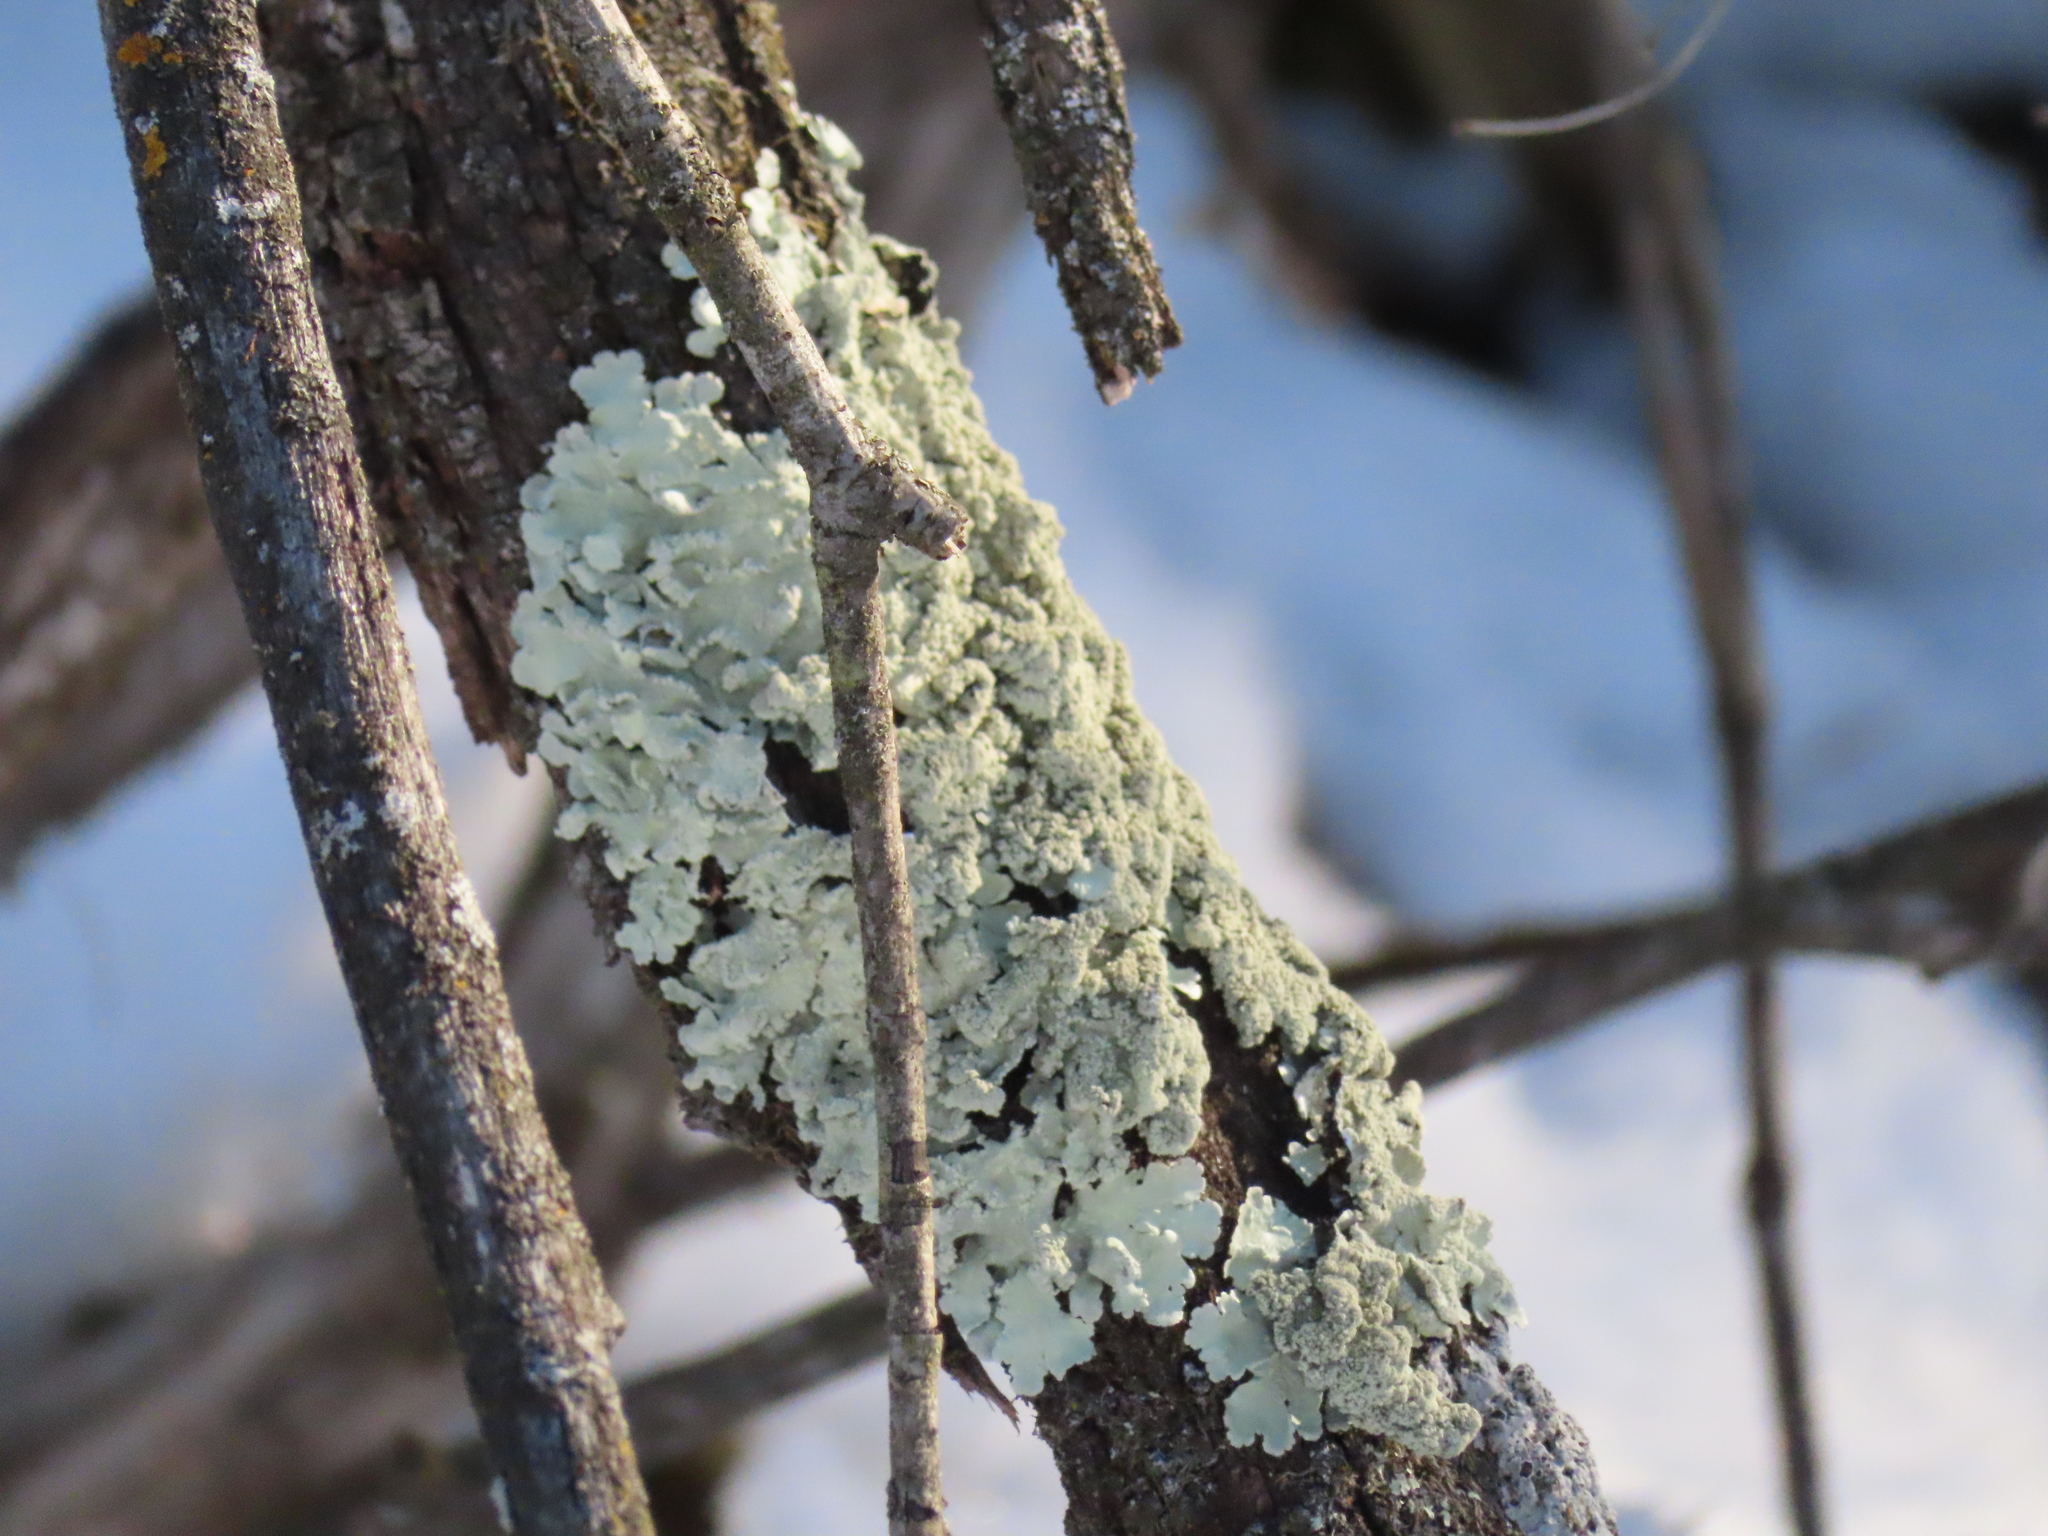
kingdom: Fungi
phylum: Ascomycota
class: Lecanoromycetes
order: Lecanorales
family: Parmeliaceae
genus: Flavoparmelia
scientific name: Flavoparmelia caperata
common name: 40-mile per hour lichen
